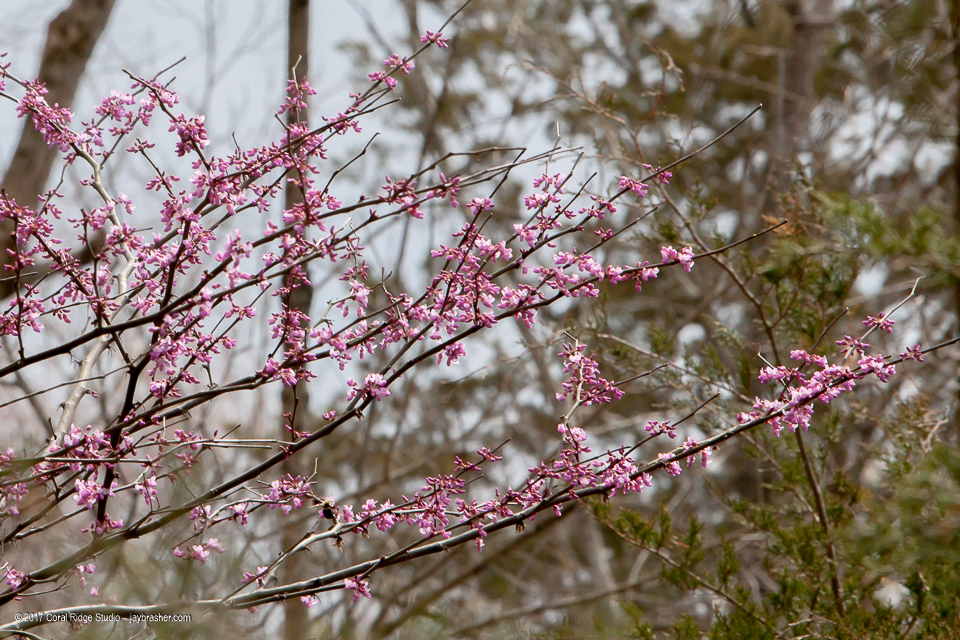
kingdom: Plantae
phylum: Tracheophyta
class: Magnoliopsida
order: Fabales
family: Fabaceae
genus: Cercis
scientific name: Cercis canadensis
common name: Eastern redbud
